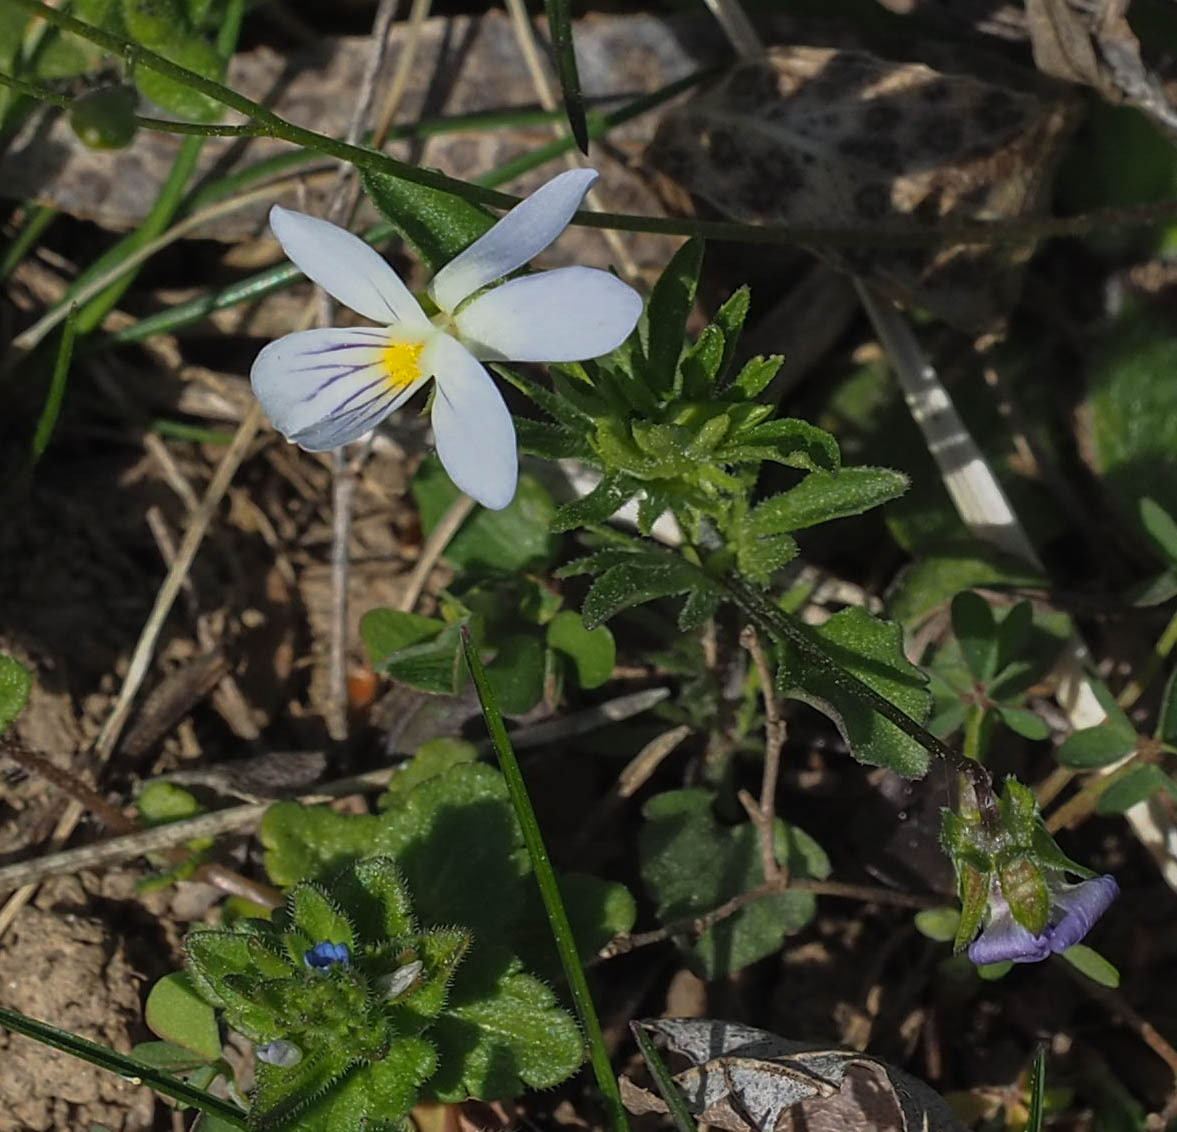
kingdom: Plantae
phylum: Tracheophyta
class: Magnoliopsida
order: Malpighiales
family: Violaceae
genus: Viola
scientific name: Viola rafinesquei
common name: American field pansy
